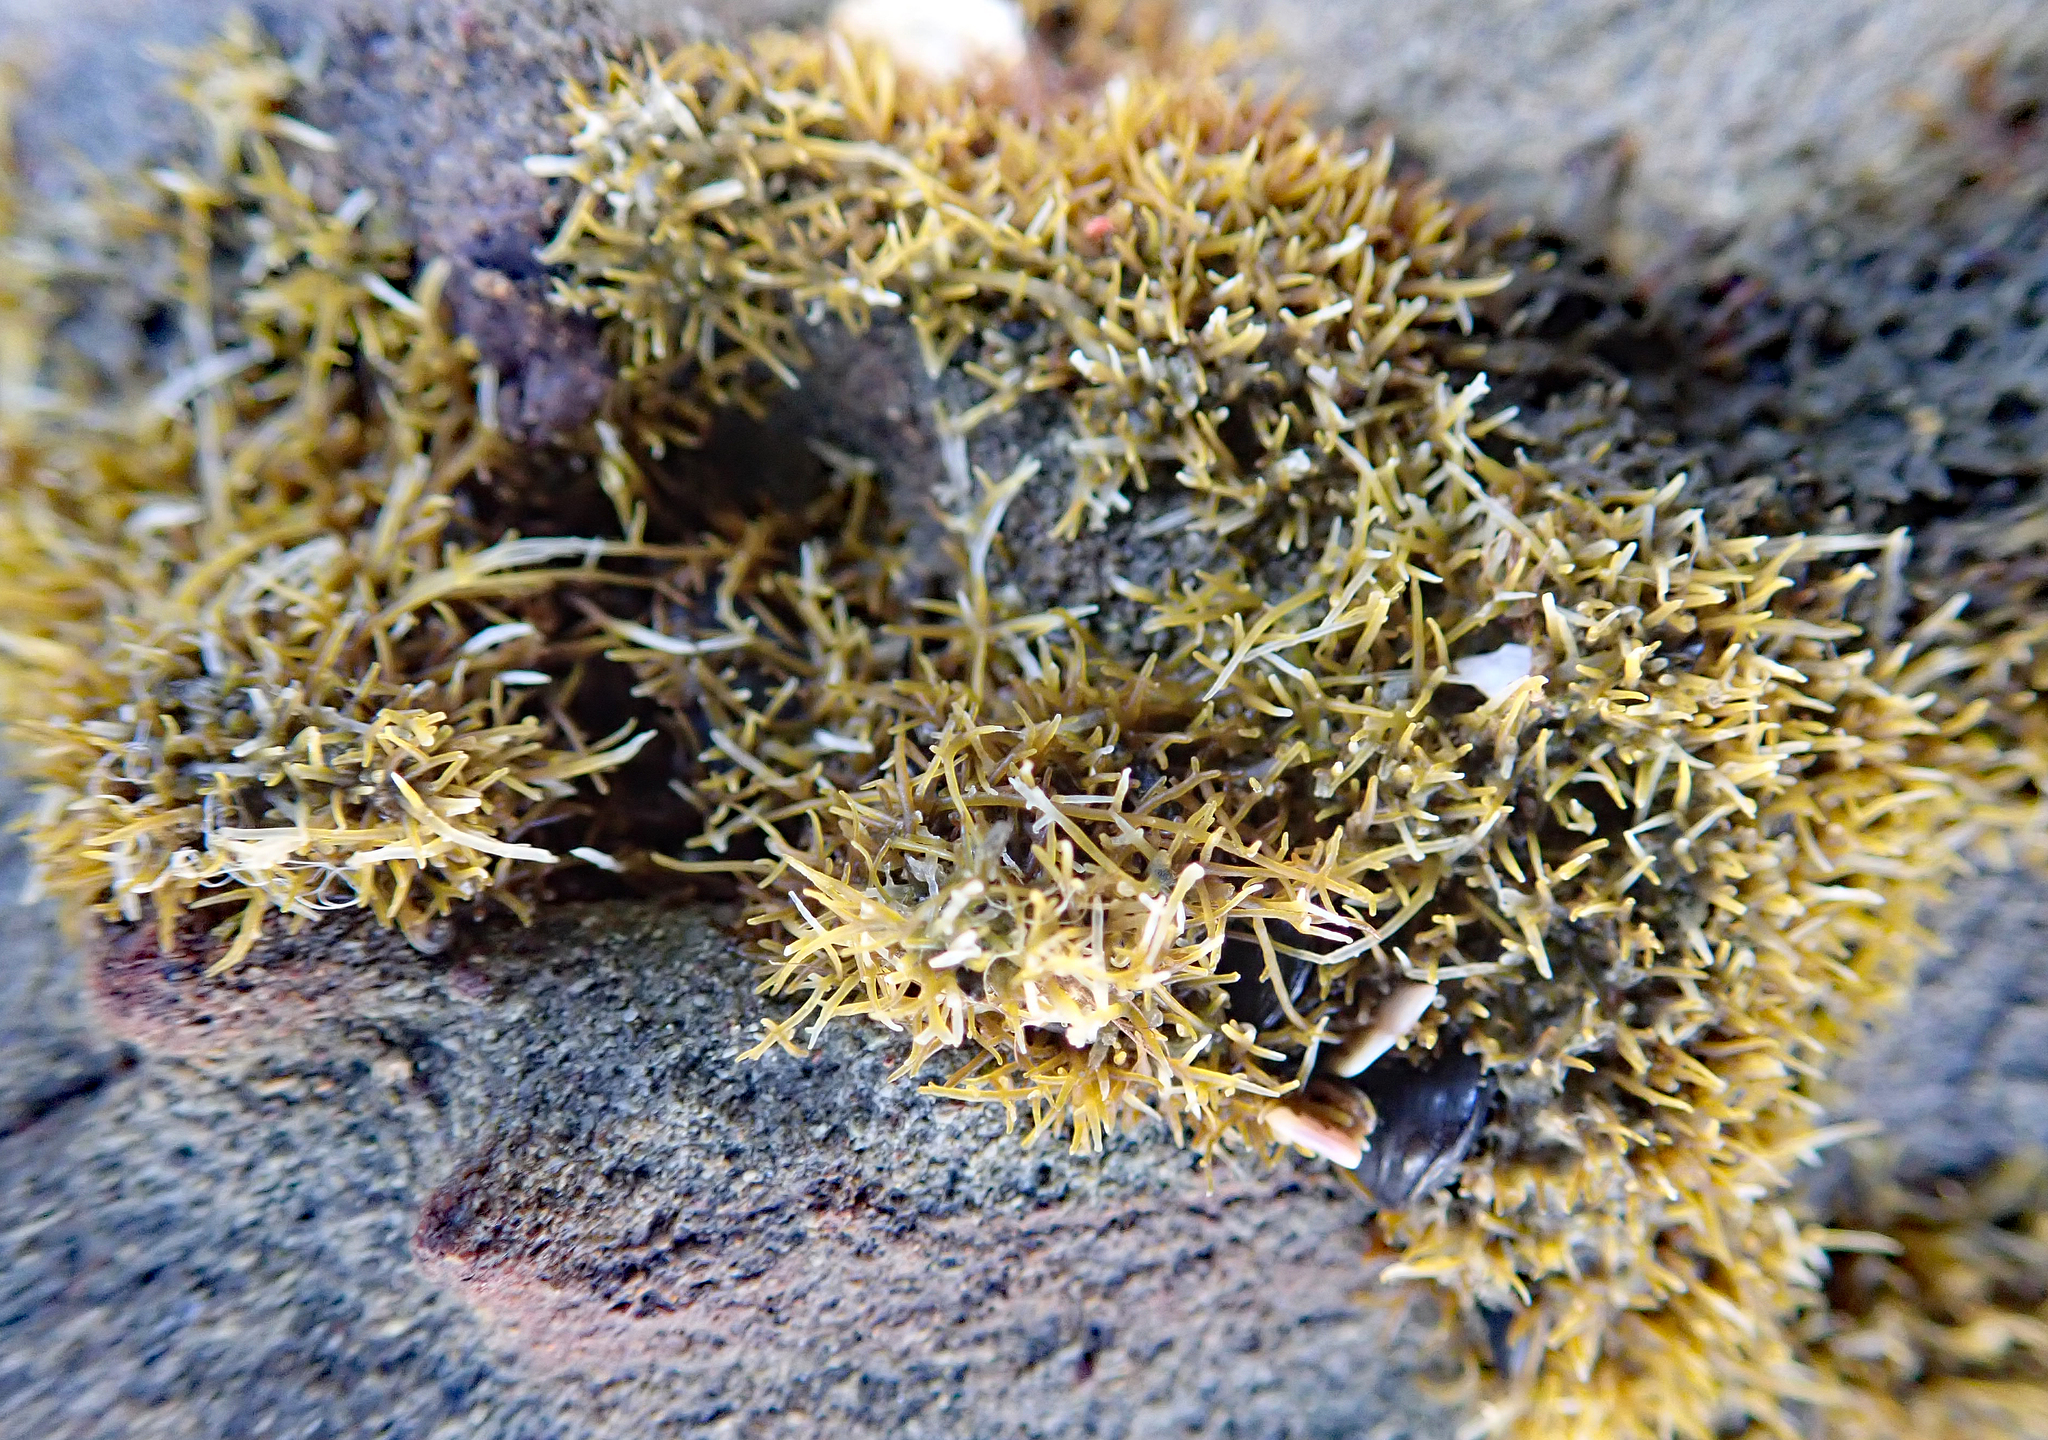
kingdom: Plantae
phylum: Rhodophyta
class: Florideophyceae
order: Gelidiales
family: Gelidiaceae
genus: Capreolia
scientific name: Capreolia implexa
